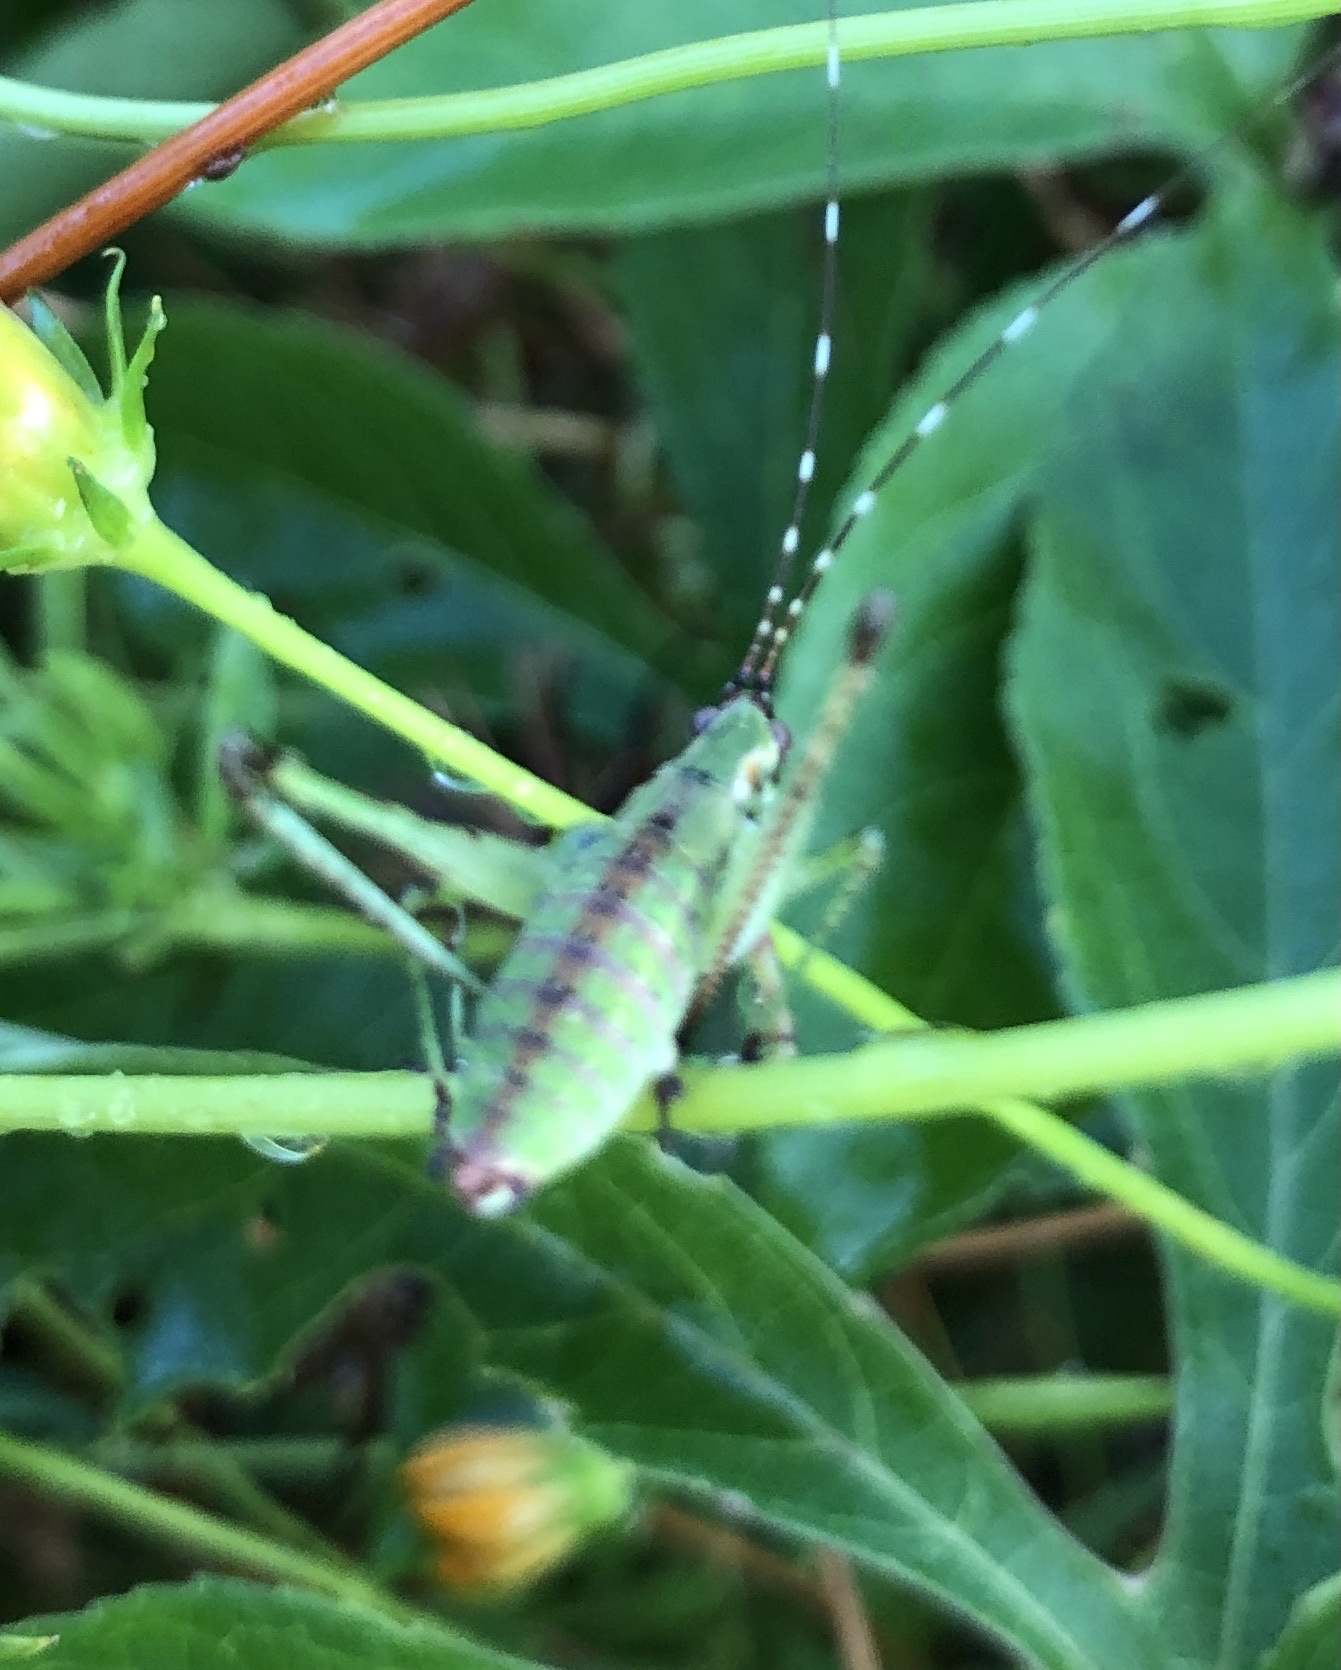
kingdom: Animalia
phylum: Arthropoda
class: Insecta
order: Orthoptera
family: Tettigoniidae
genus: Scudderia
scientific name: Scudderia furcata
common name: Fork-tailed bush katydid
